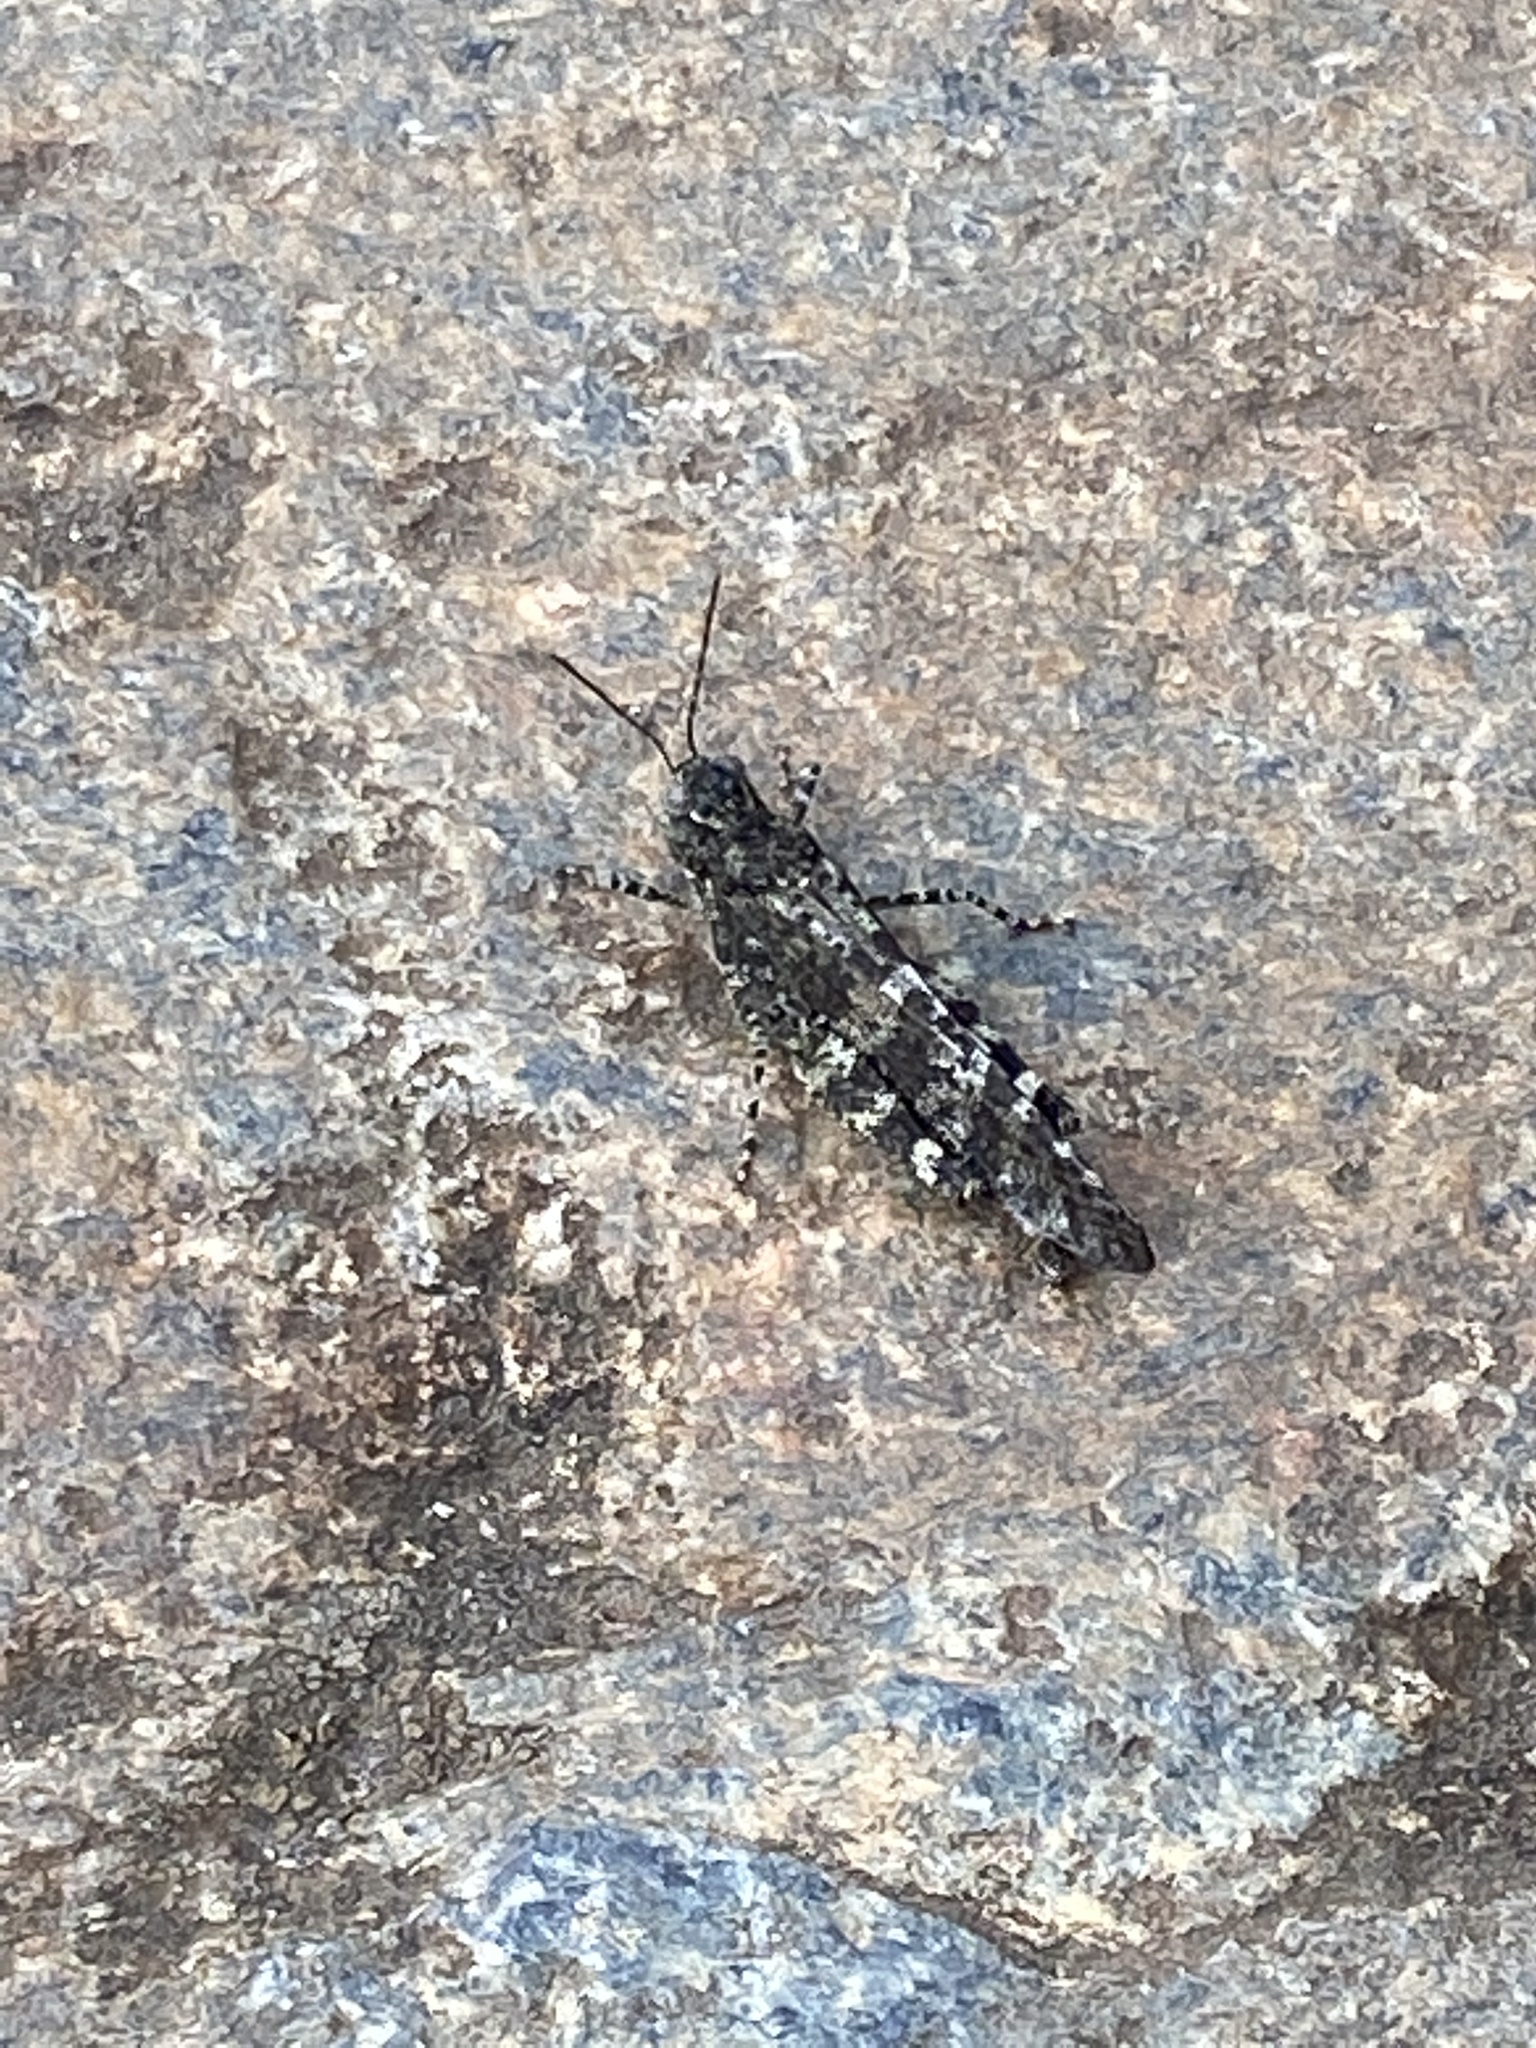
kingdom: Animalia
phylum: Arthropoda
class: Insecta
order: Orthoptera
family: Acrididae
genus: Trimerotropis
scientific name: Trimerotropis verruculata
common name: Crackling forest grasshopper
